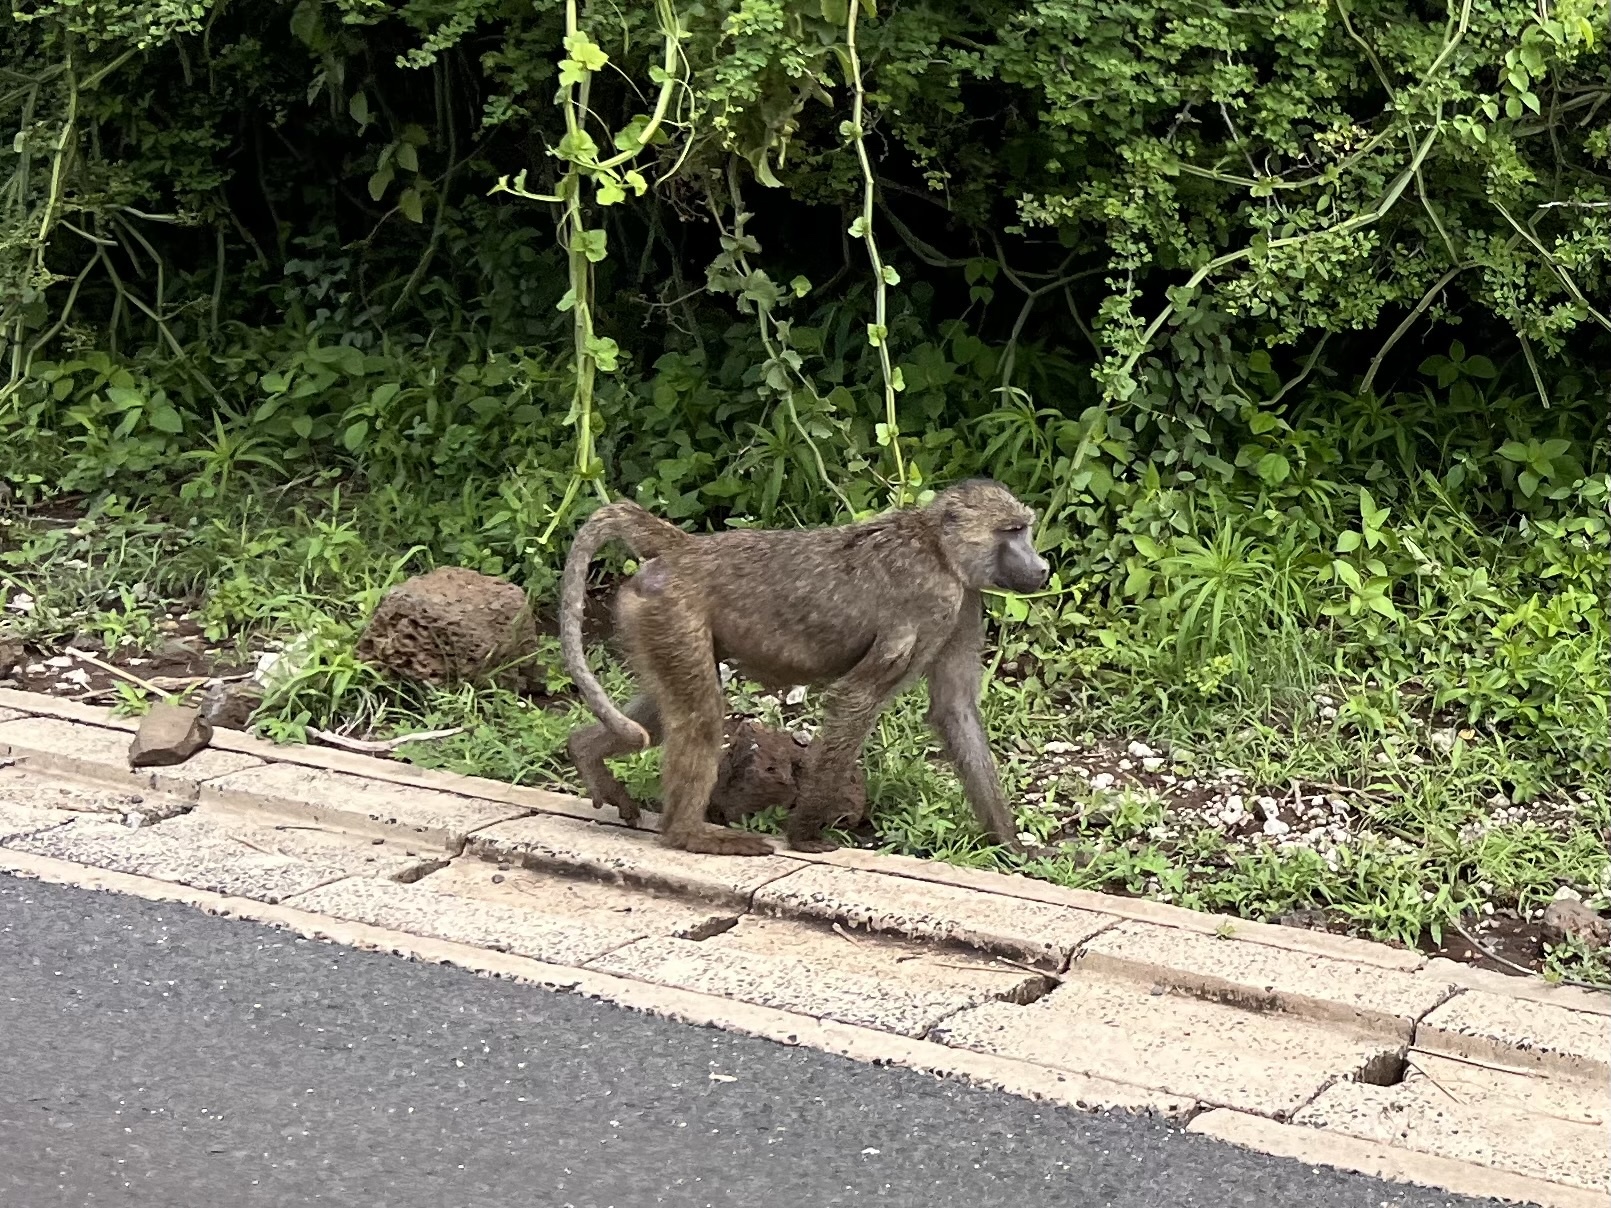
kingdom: Animalia
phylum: Chordata
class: Mammalia
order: Primates
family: Cercopithecidae
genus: Papio
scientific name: Papio anubis
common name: Olive baboon
